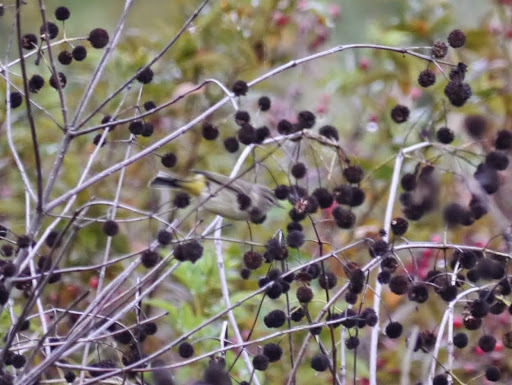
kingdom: Animalia
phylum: Chordata
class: Aves
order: Passeriformes
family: Parulidae
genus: Setophaga
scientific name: Setophaga palmarum
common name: Palm warbler
